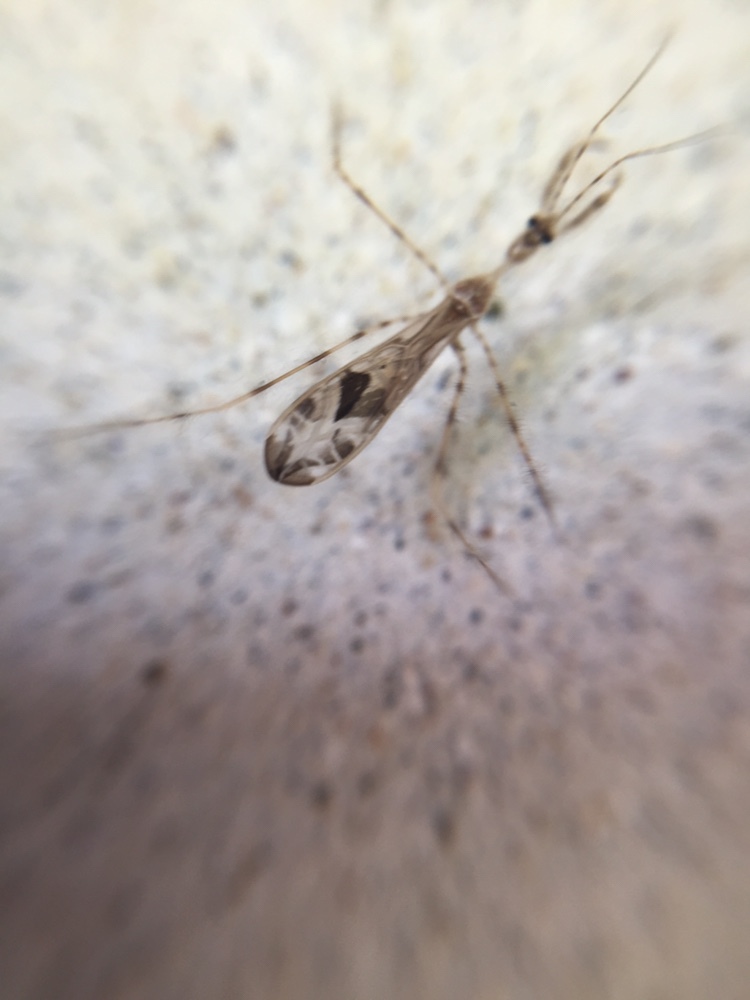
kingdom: Animalia
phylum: Arthropoda
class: Insecta
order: Hemiptera
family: Reduviidae
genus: Stenolemus
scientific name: Stenolemus fraterculus
